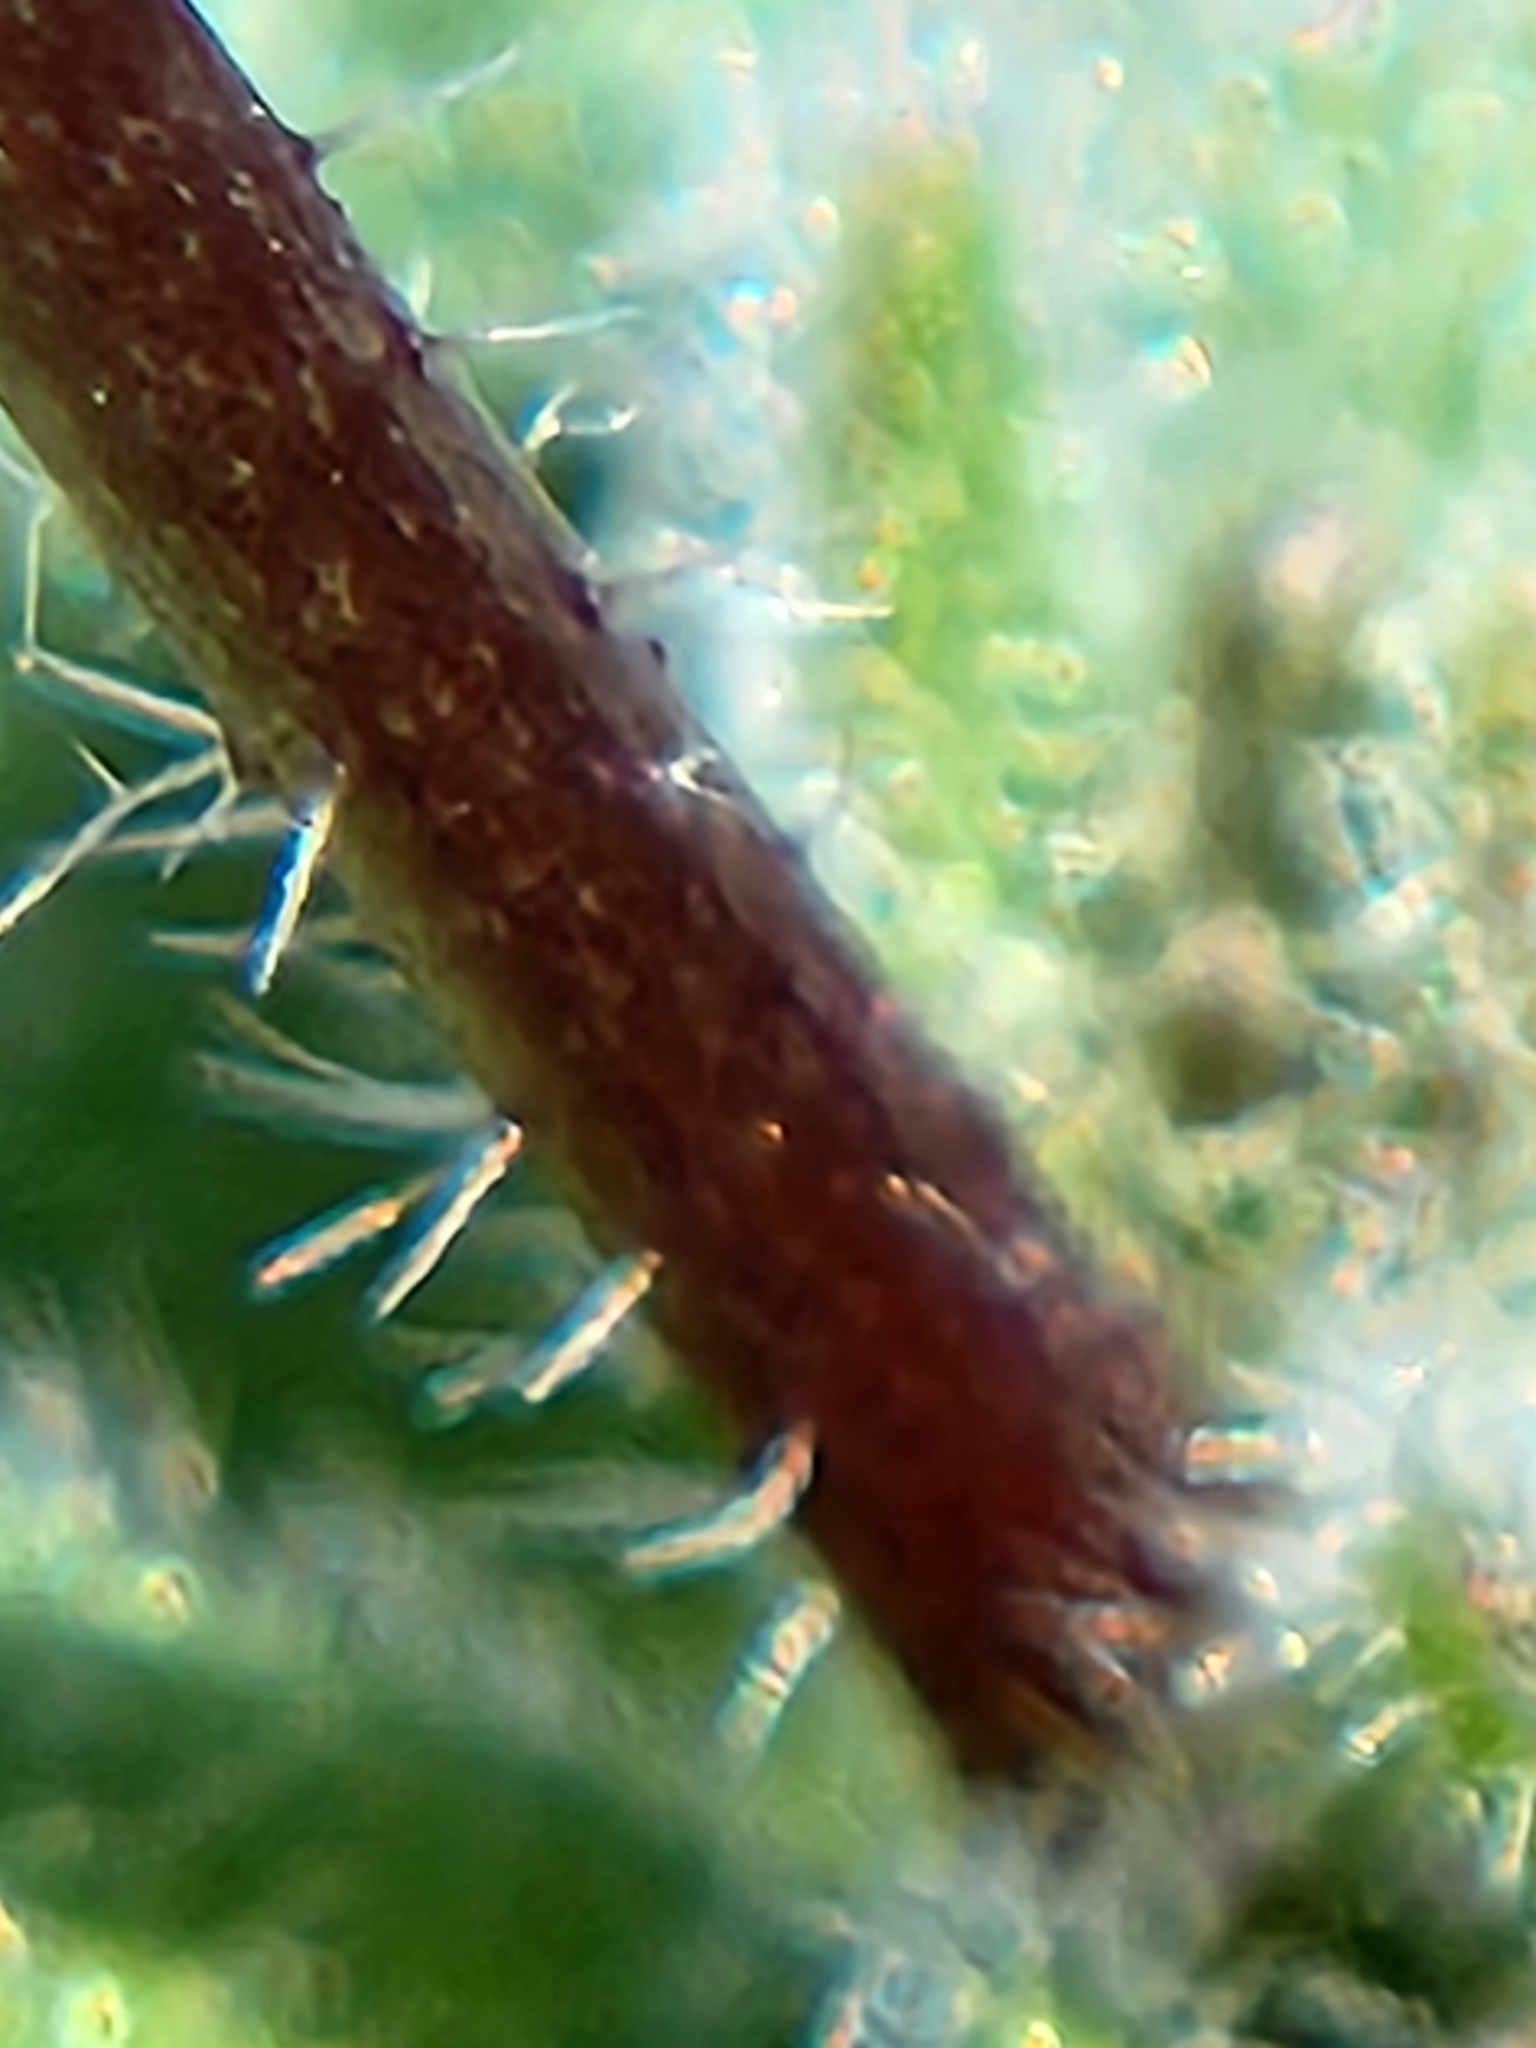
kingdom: Plantae
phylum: Tracheophyta
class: Magnoliopsida
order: Brassicales
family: Brassicaceae
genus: Tomostima
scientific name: Tomostima reptans
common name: Carolina draba
